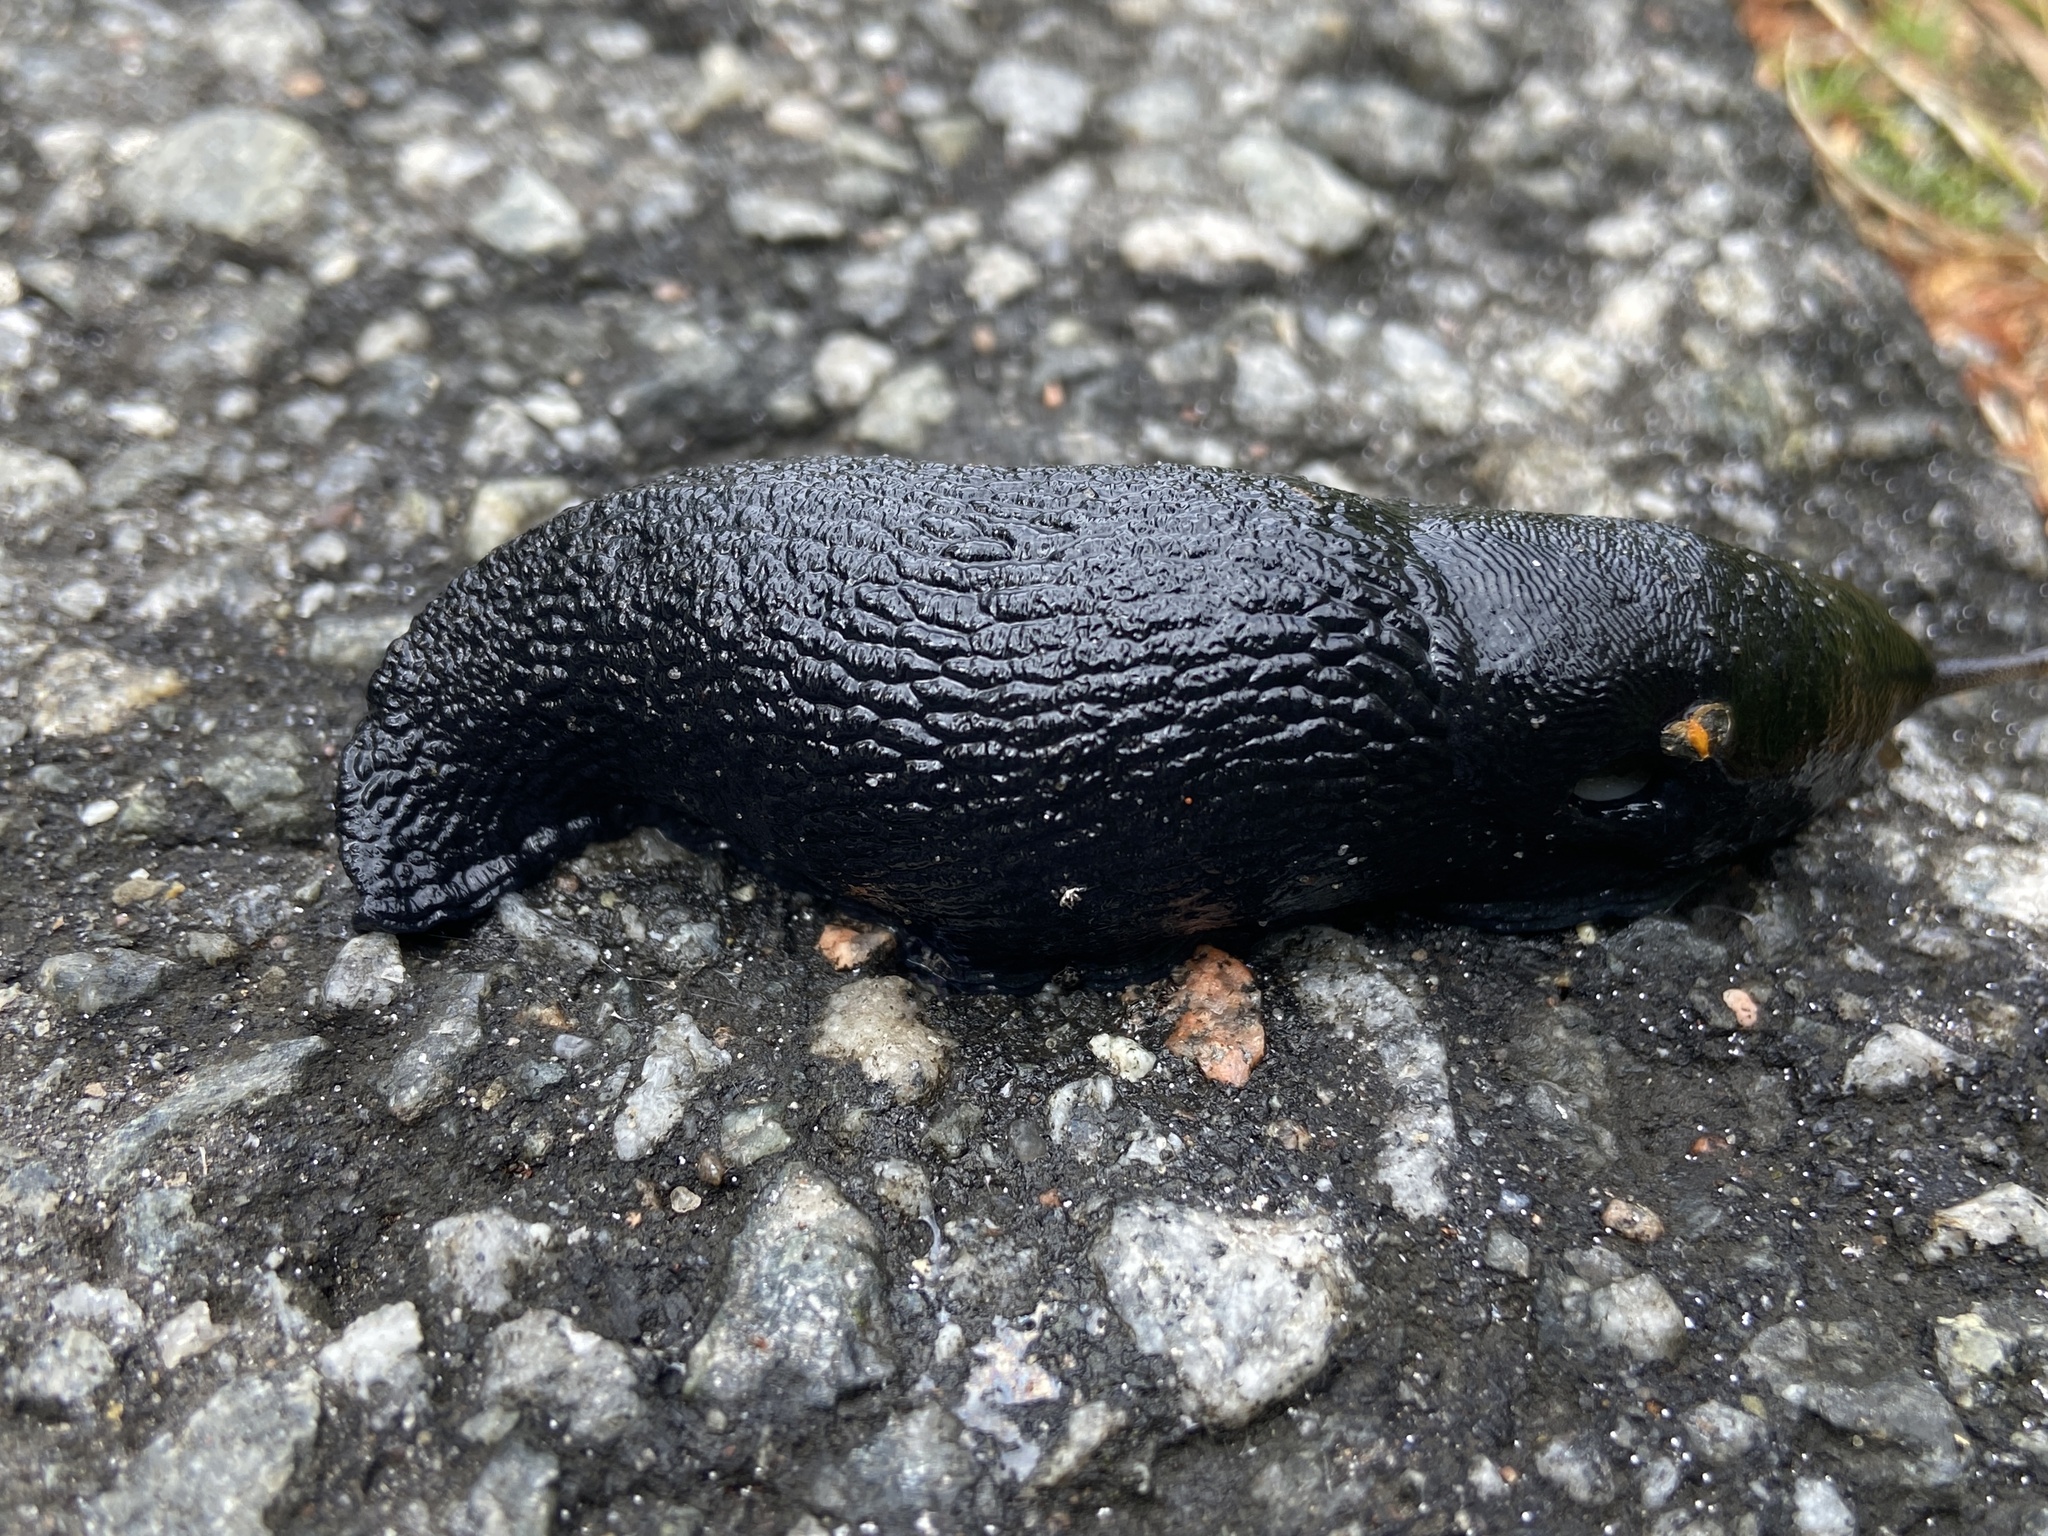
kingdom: Animalia
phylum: Mollusca
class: Gastropoda
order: Stylommatophora
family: Limacidae
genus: Limax
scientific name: Limax cinereoniger
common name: Ash-black slug
